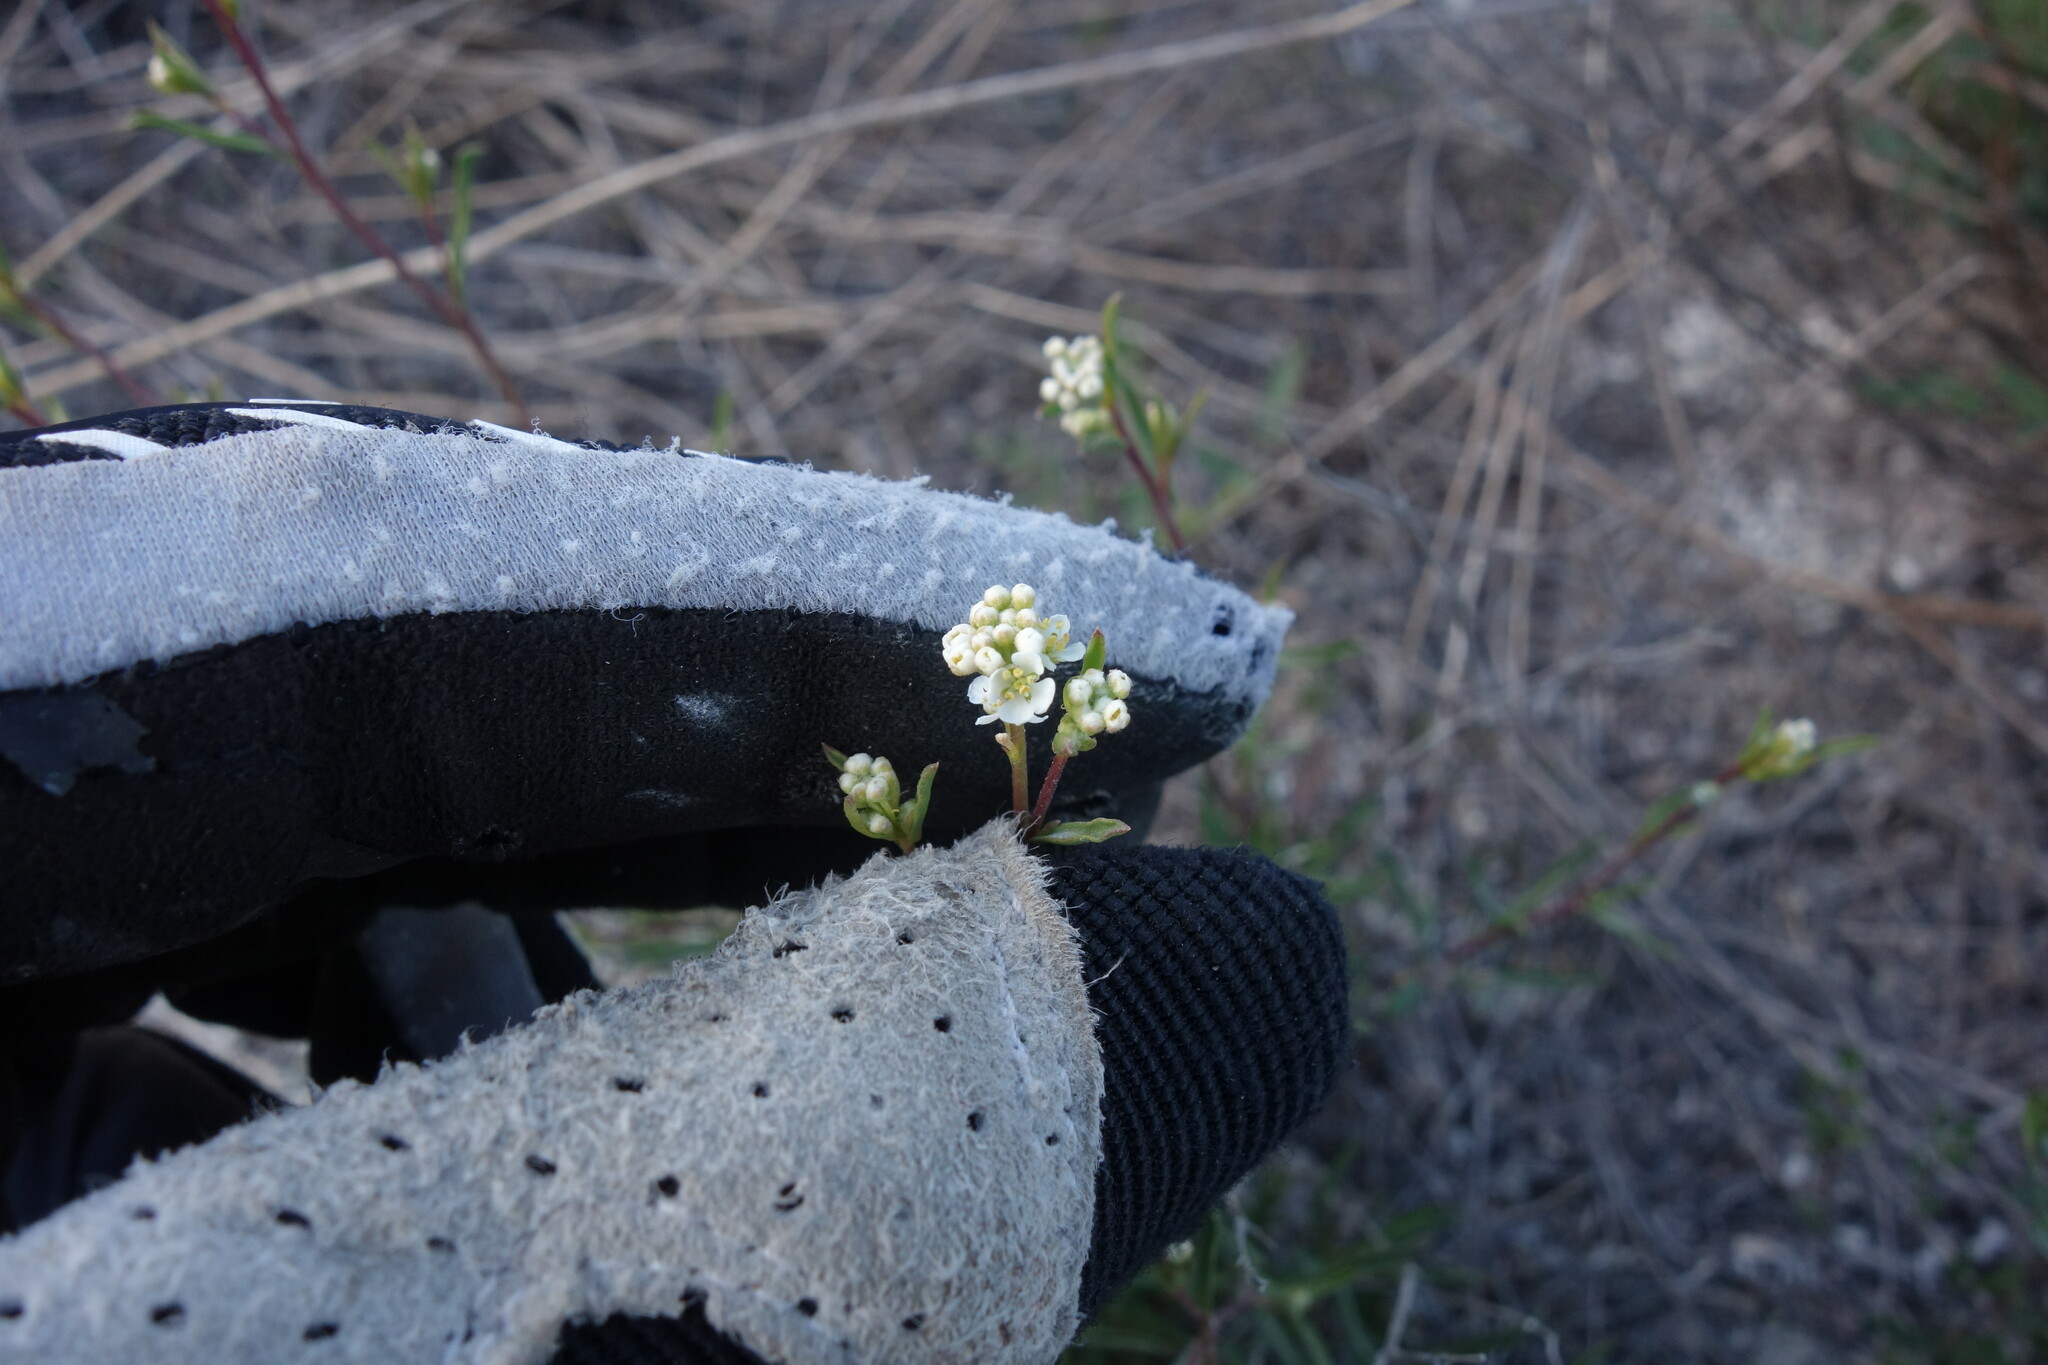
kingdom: Plantae
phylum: Tracheophyta
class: Magnoliopsida
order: Brassicales
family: Brassicaceae
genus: Lepidium
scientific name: Lepidium meyeri
